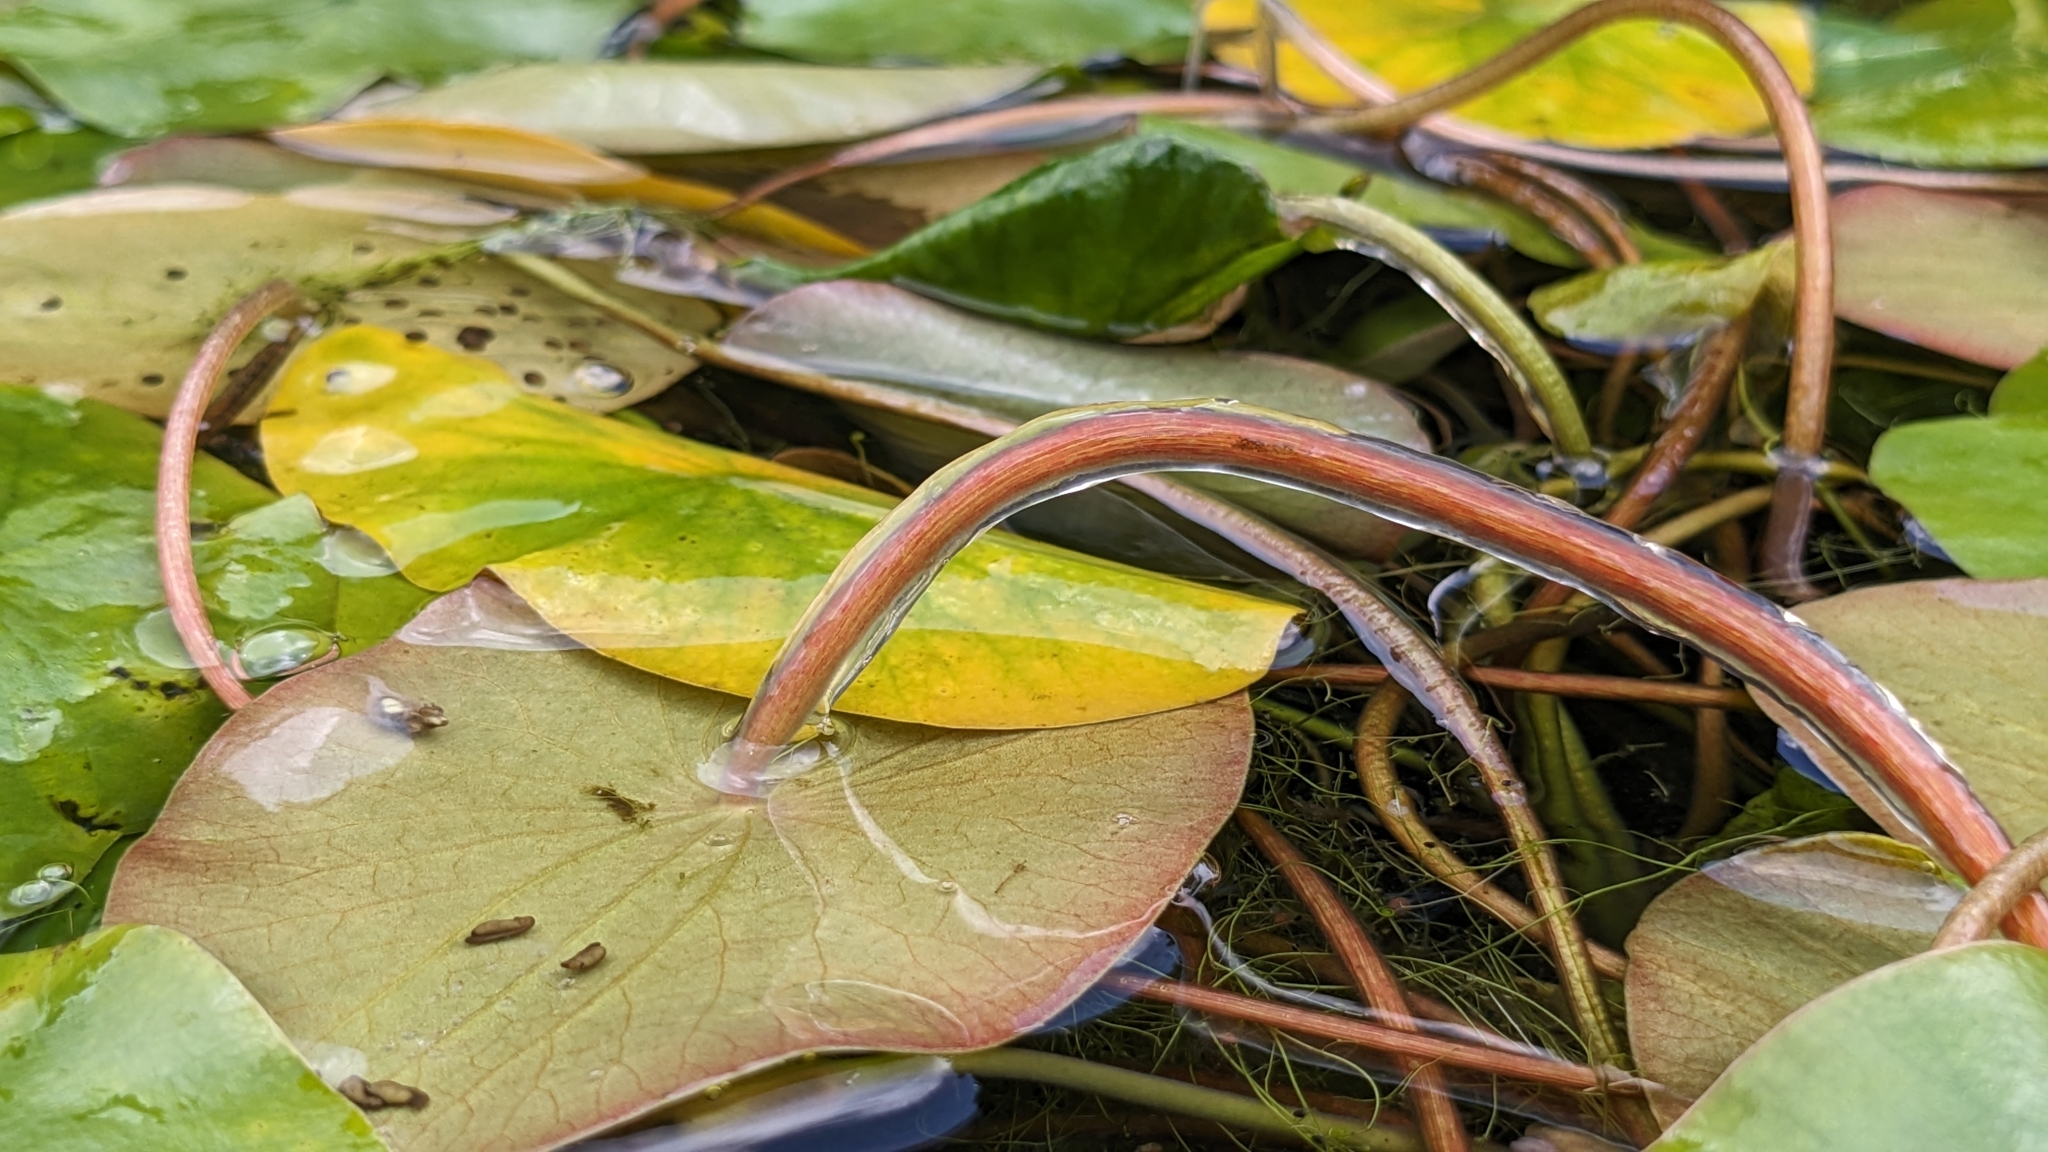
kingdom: Plantae
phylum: Tracheophyta
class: Magnoliopsida
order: Nymphaeales
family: Cabombaceae
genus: Brasenia
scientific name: Brasenia schreberi
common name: Water-shield
